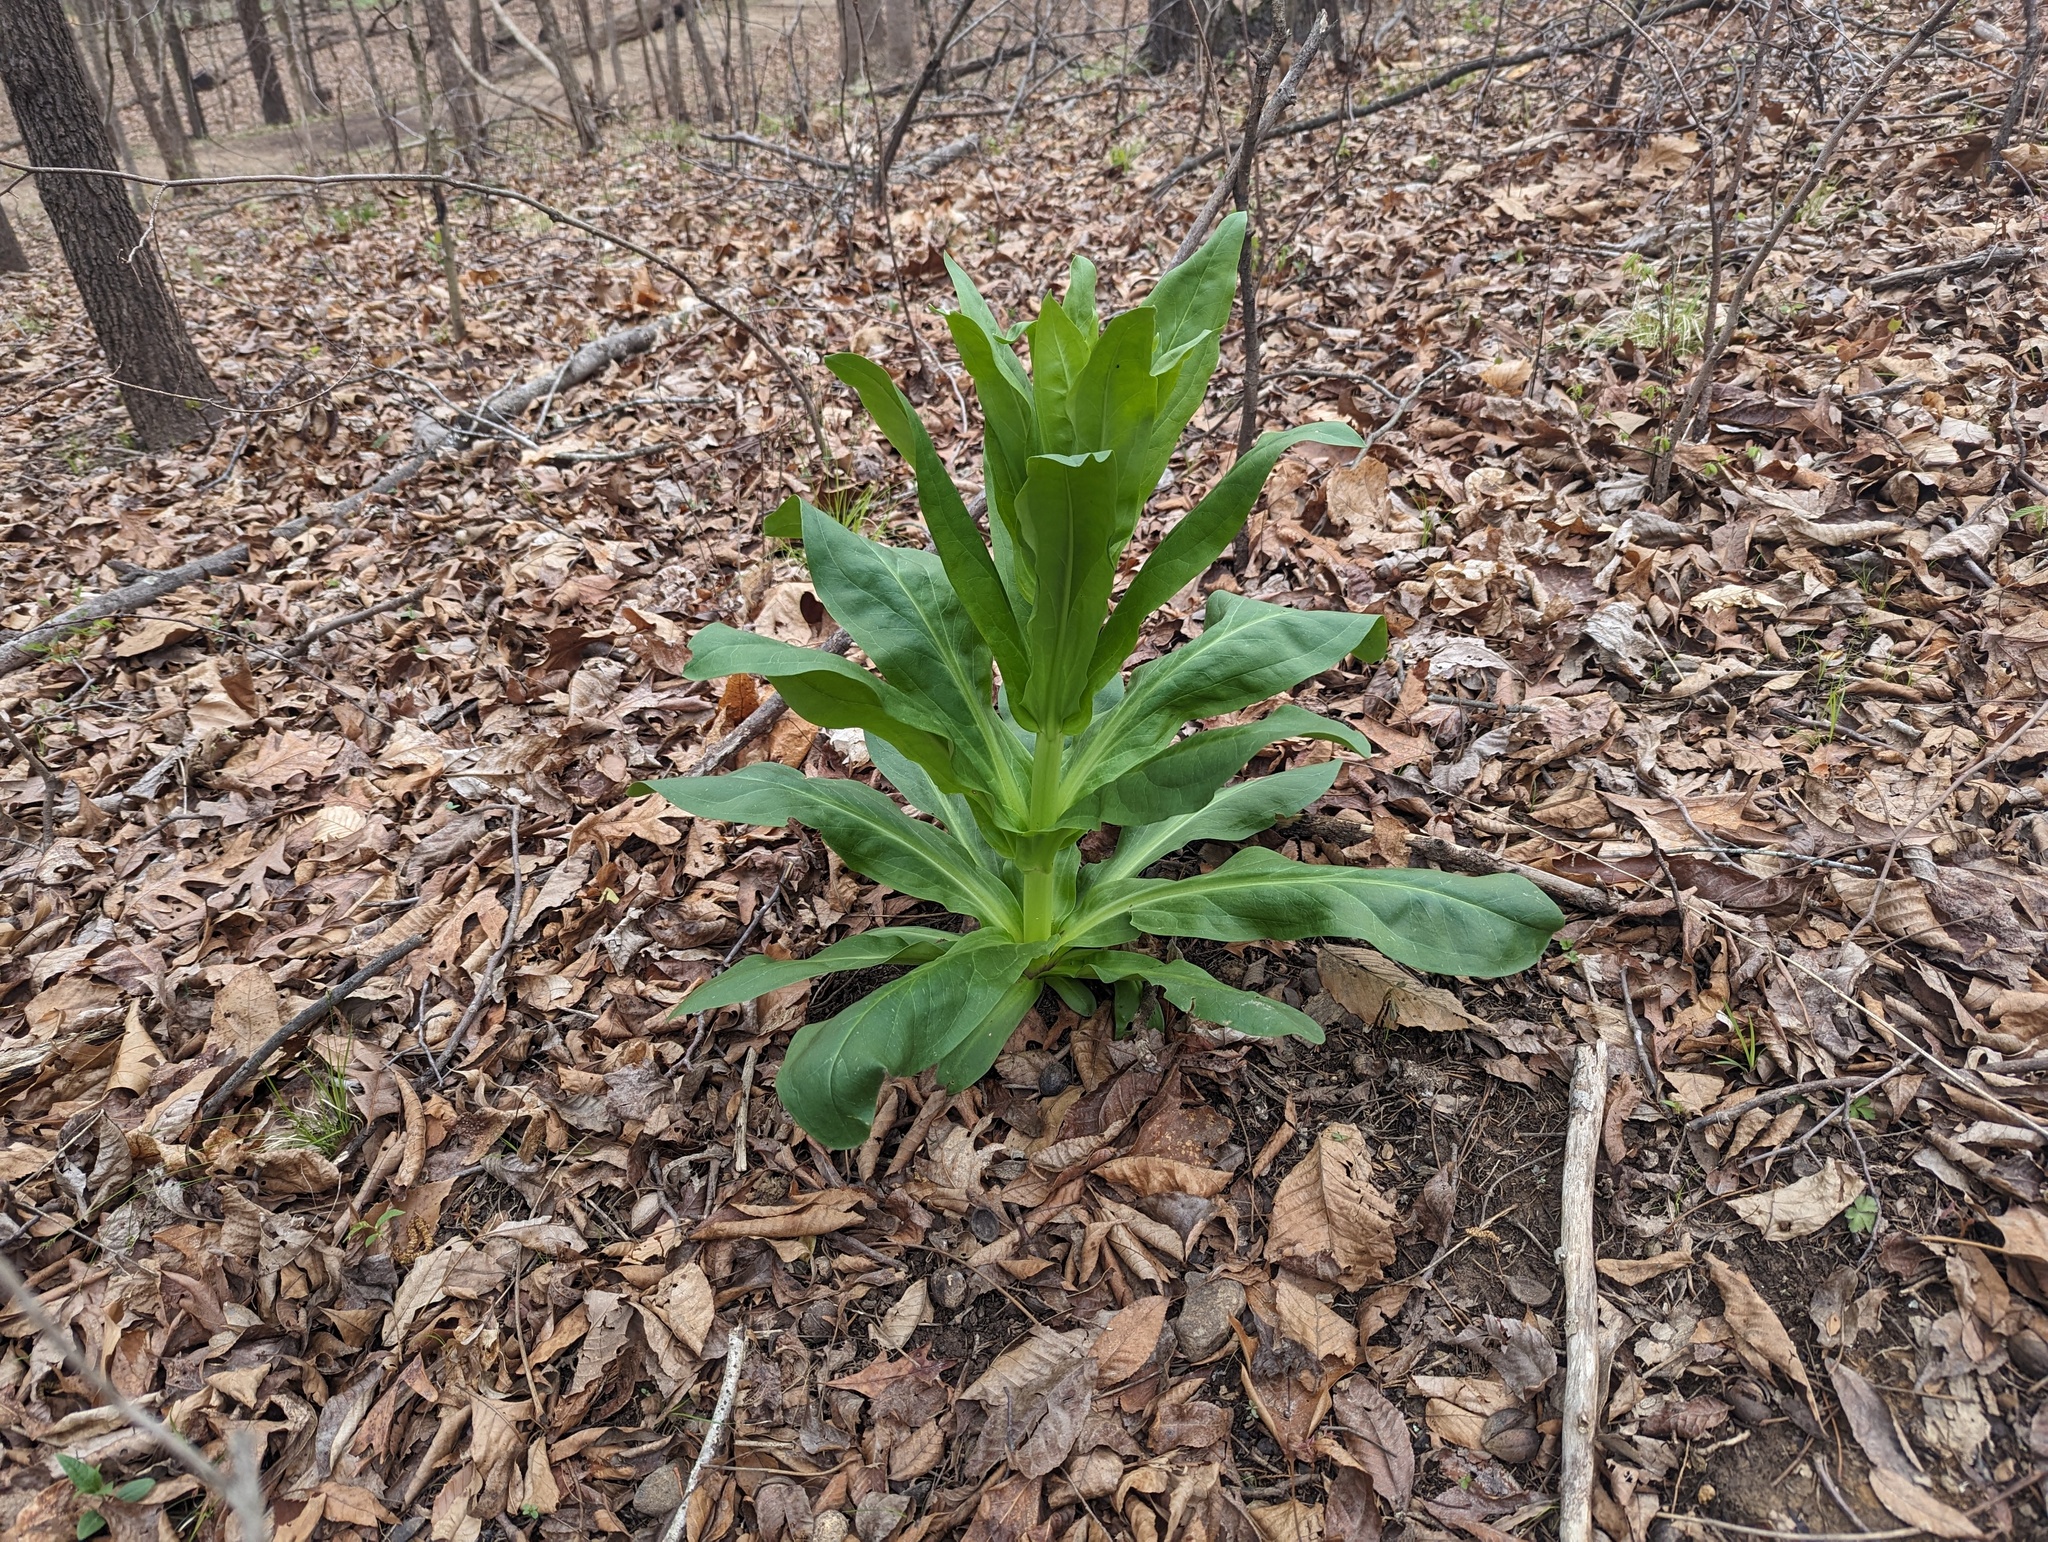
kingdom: Plantae
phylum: Tracheophyta
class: Magnoliopsida
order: Gentianales
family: Gentianaceae
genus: Frasera
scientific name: Frasera caroliniensis
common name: American columbo
